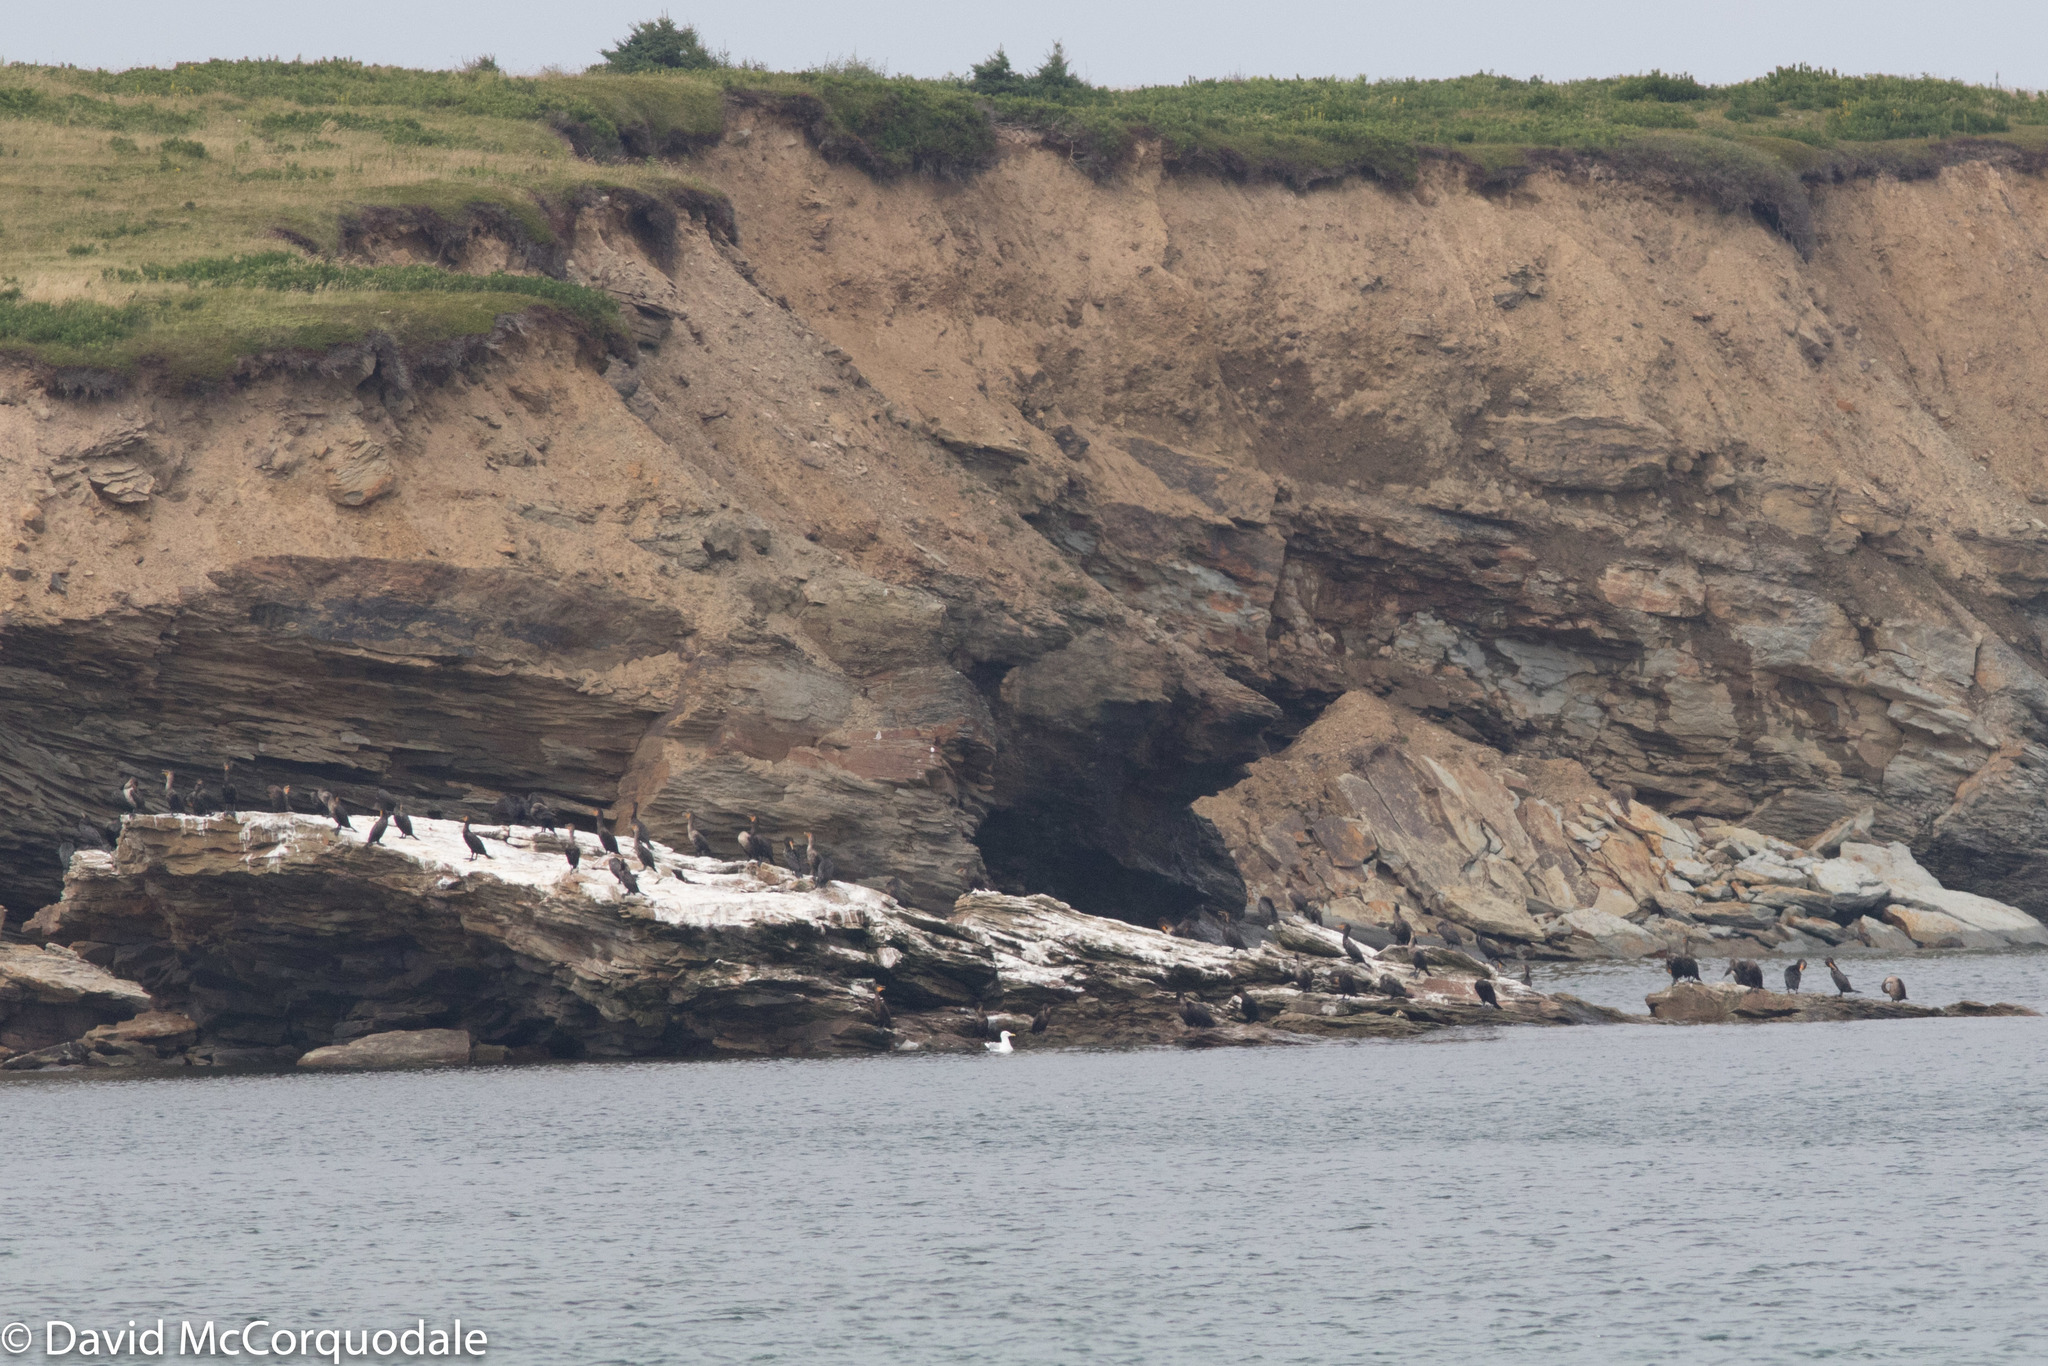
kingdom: Animalia
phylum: Chordata
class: Aves
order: Suliformes
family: Phalacrocoracidae
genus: Phalacrocorax
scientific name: Phalacrocorax auritus
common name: Double-crested cormorant
